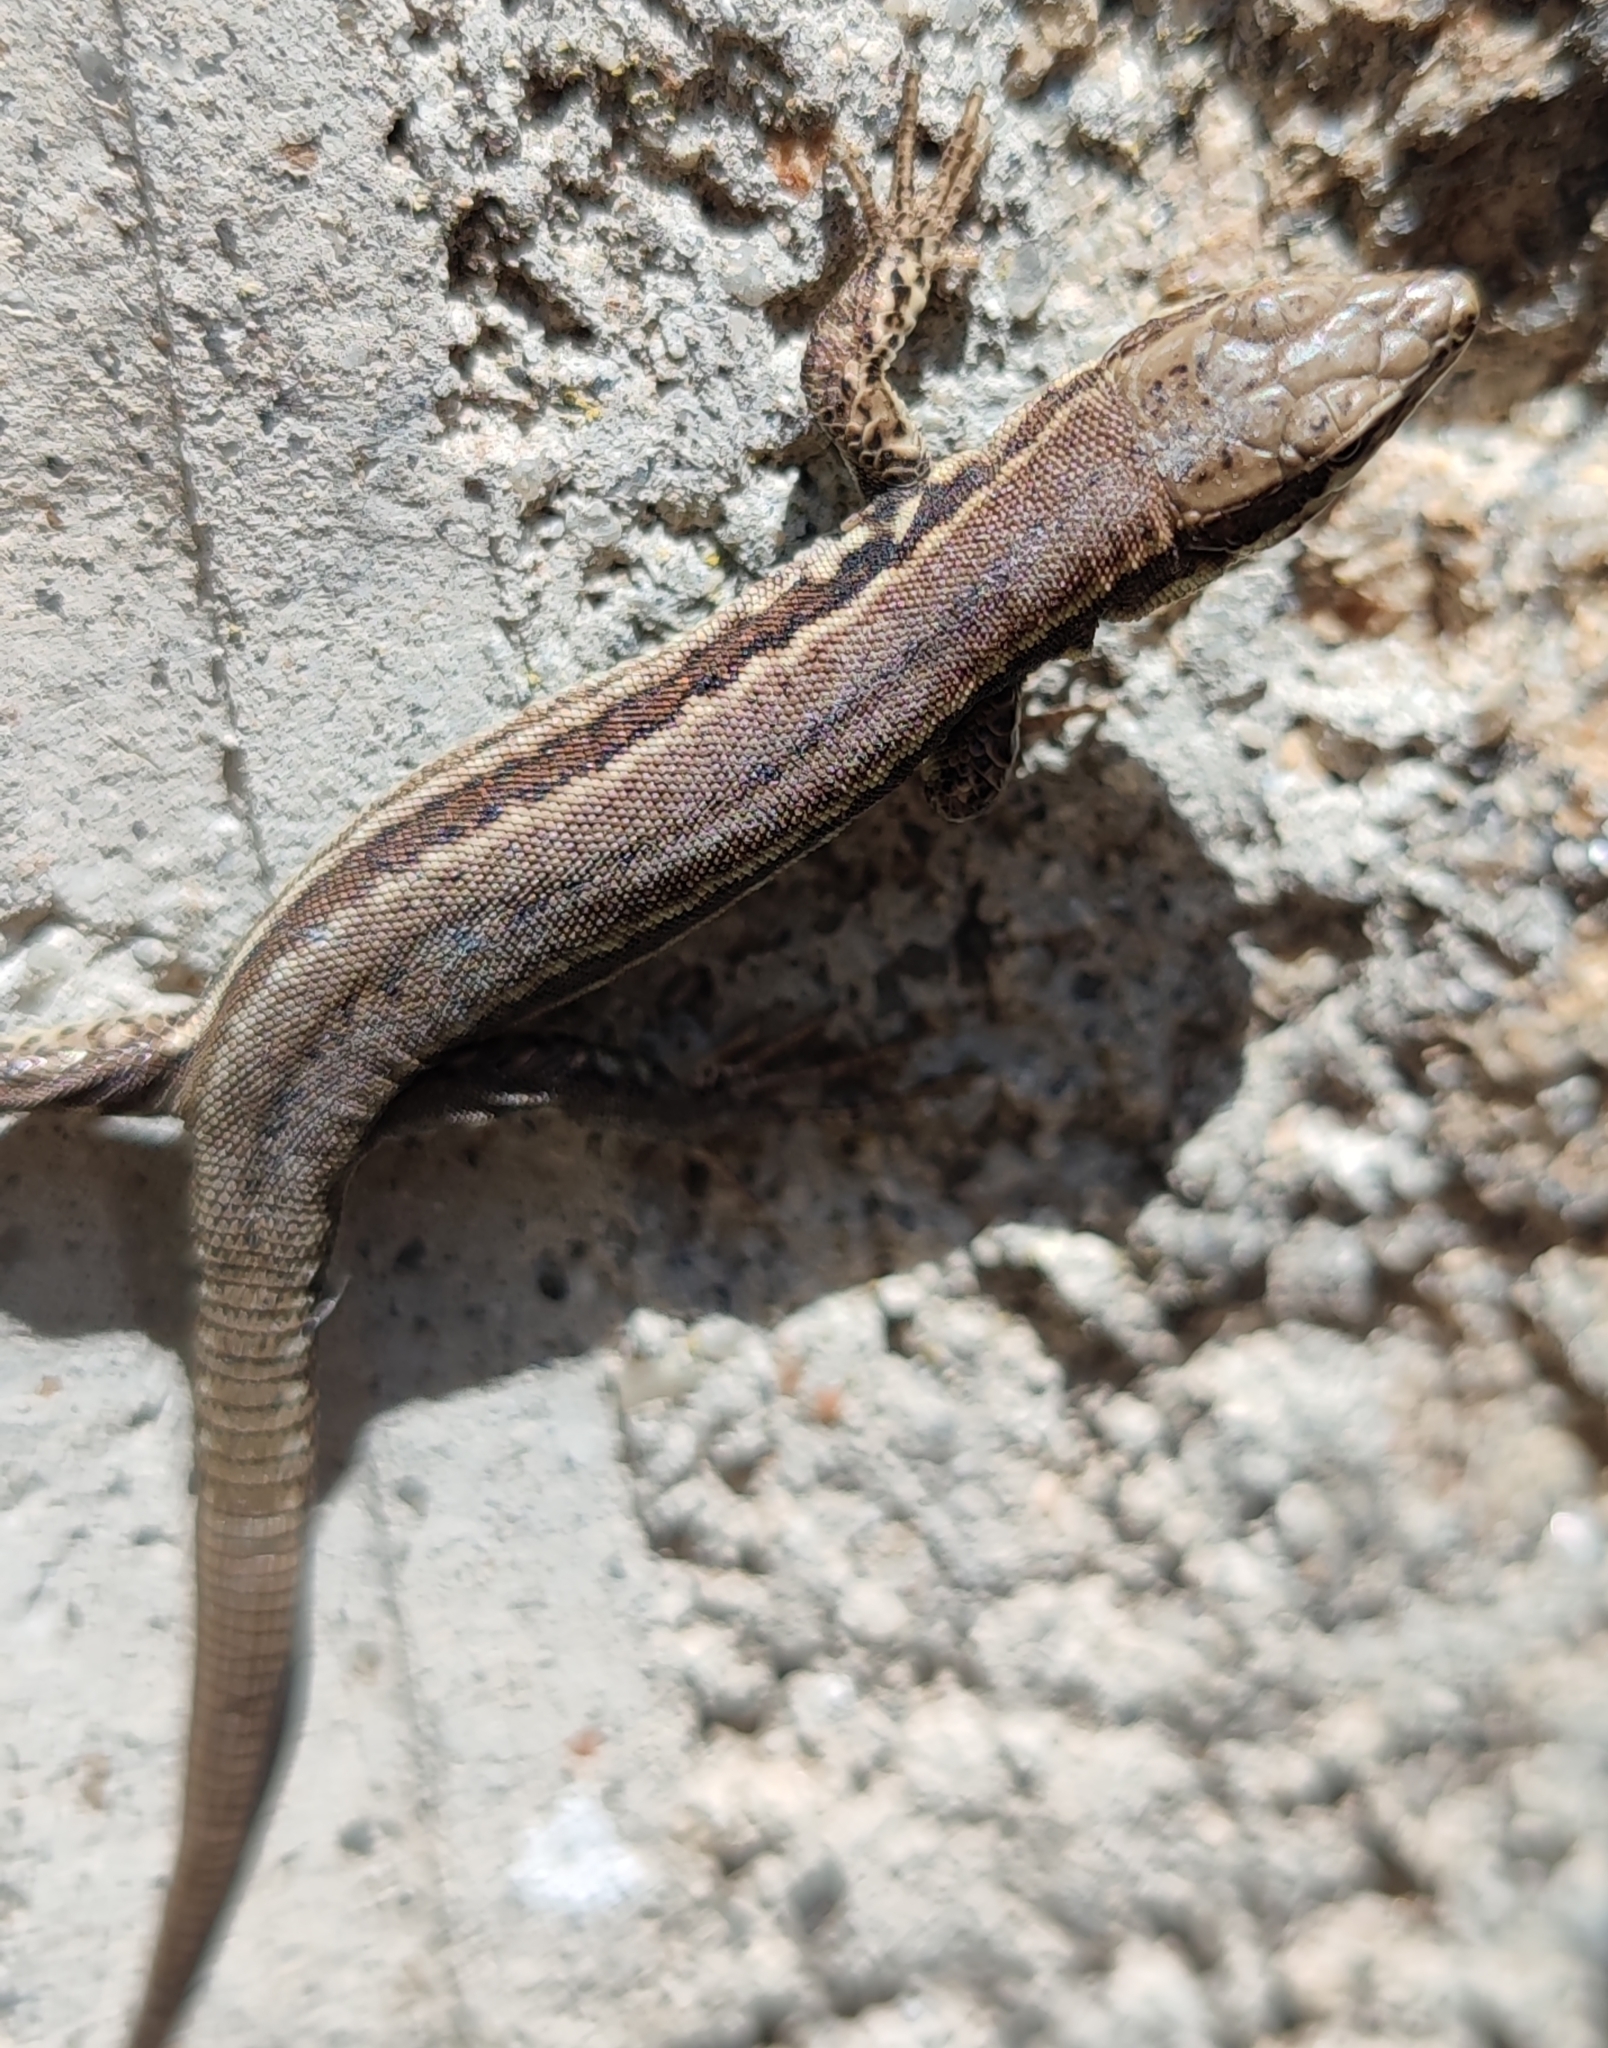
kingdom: Animalia
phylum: Chordata
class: Squamata
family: Lacertidae
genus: Podarcis
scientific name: Podarcis muralis
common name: Common wall lizard
